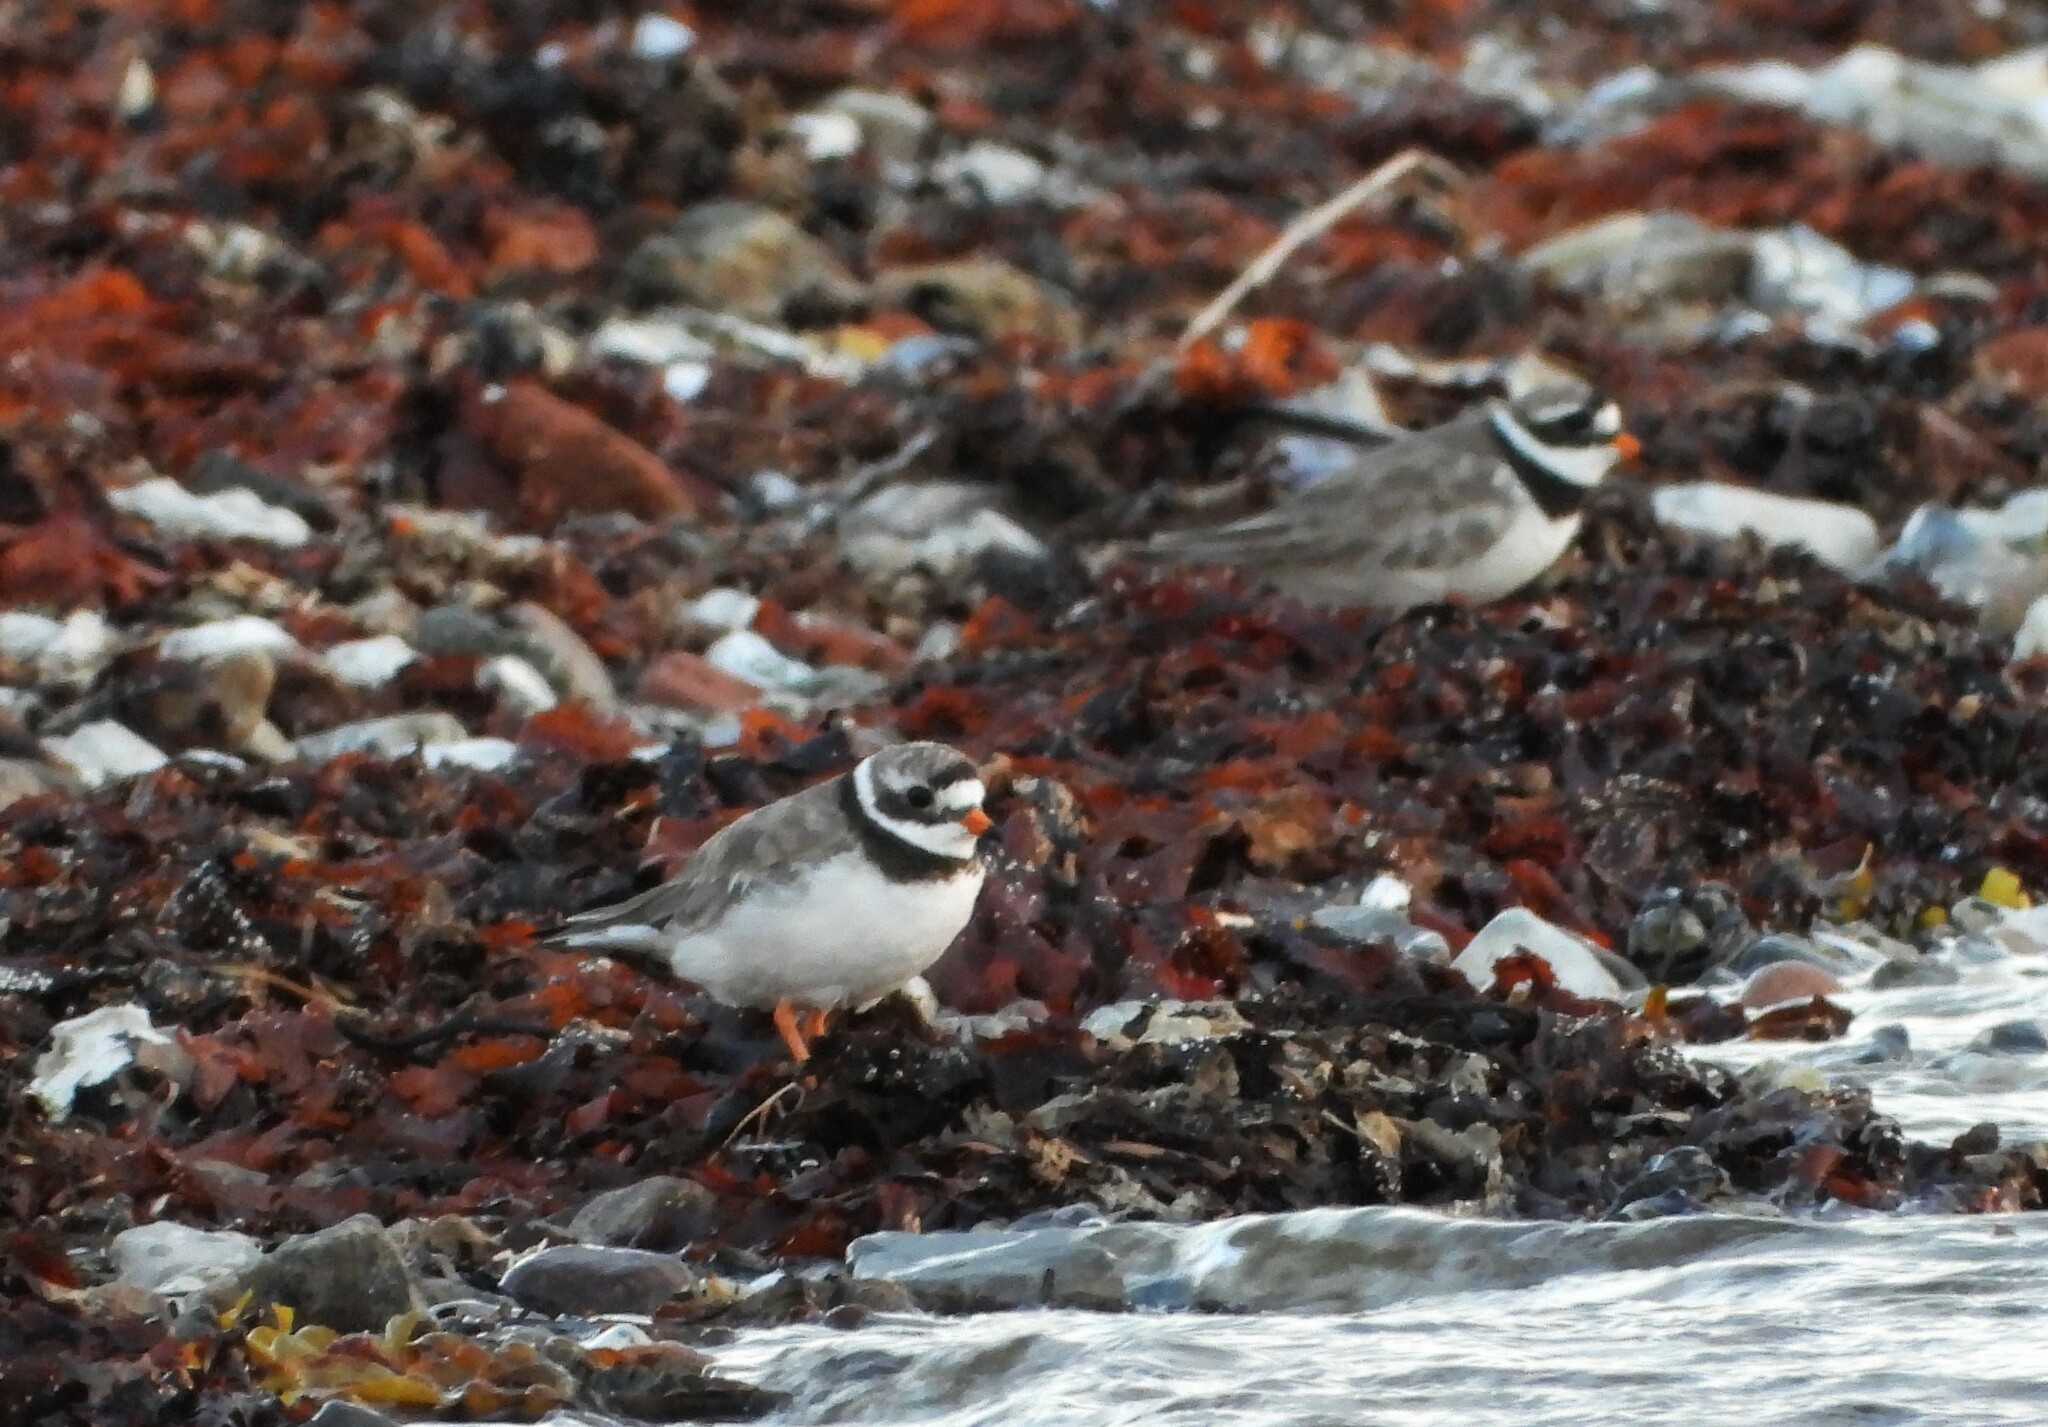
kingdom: Animalia
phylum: Chordata
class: Aves
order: Charadriiformes
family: Charadriidae
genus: Charadrius
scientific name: Charadrius hiaticula
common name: Common ringed plover
